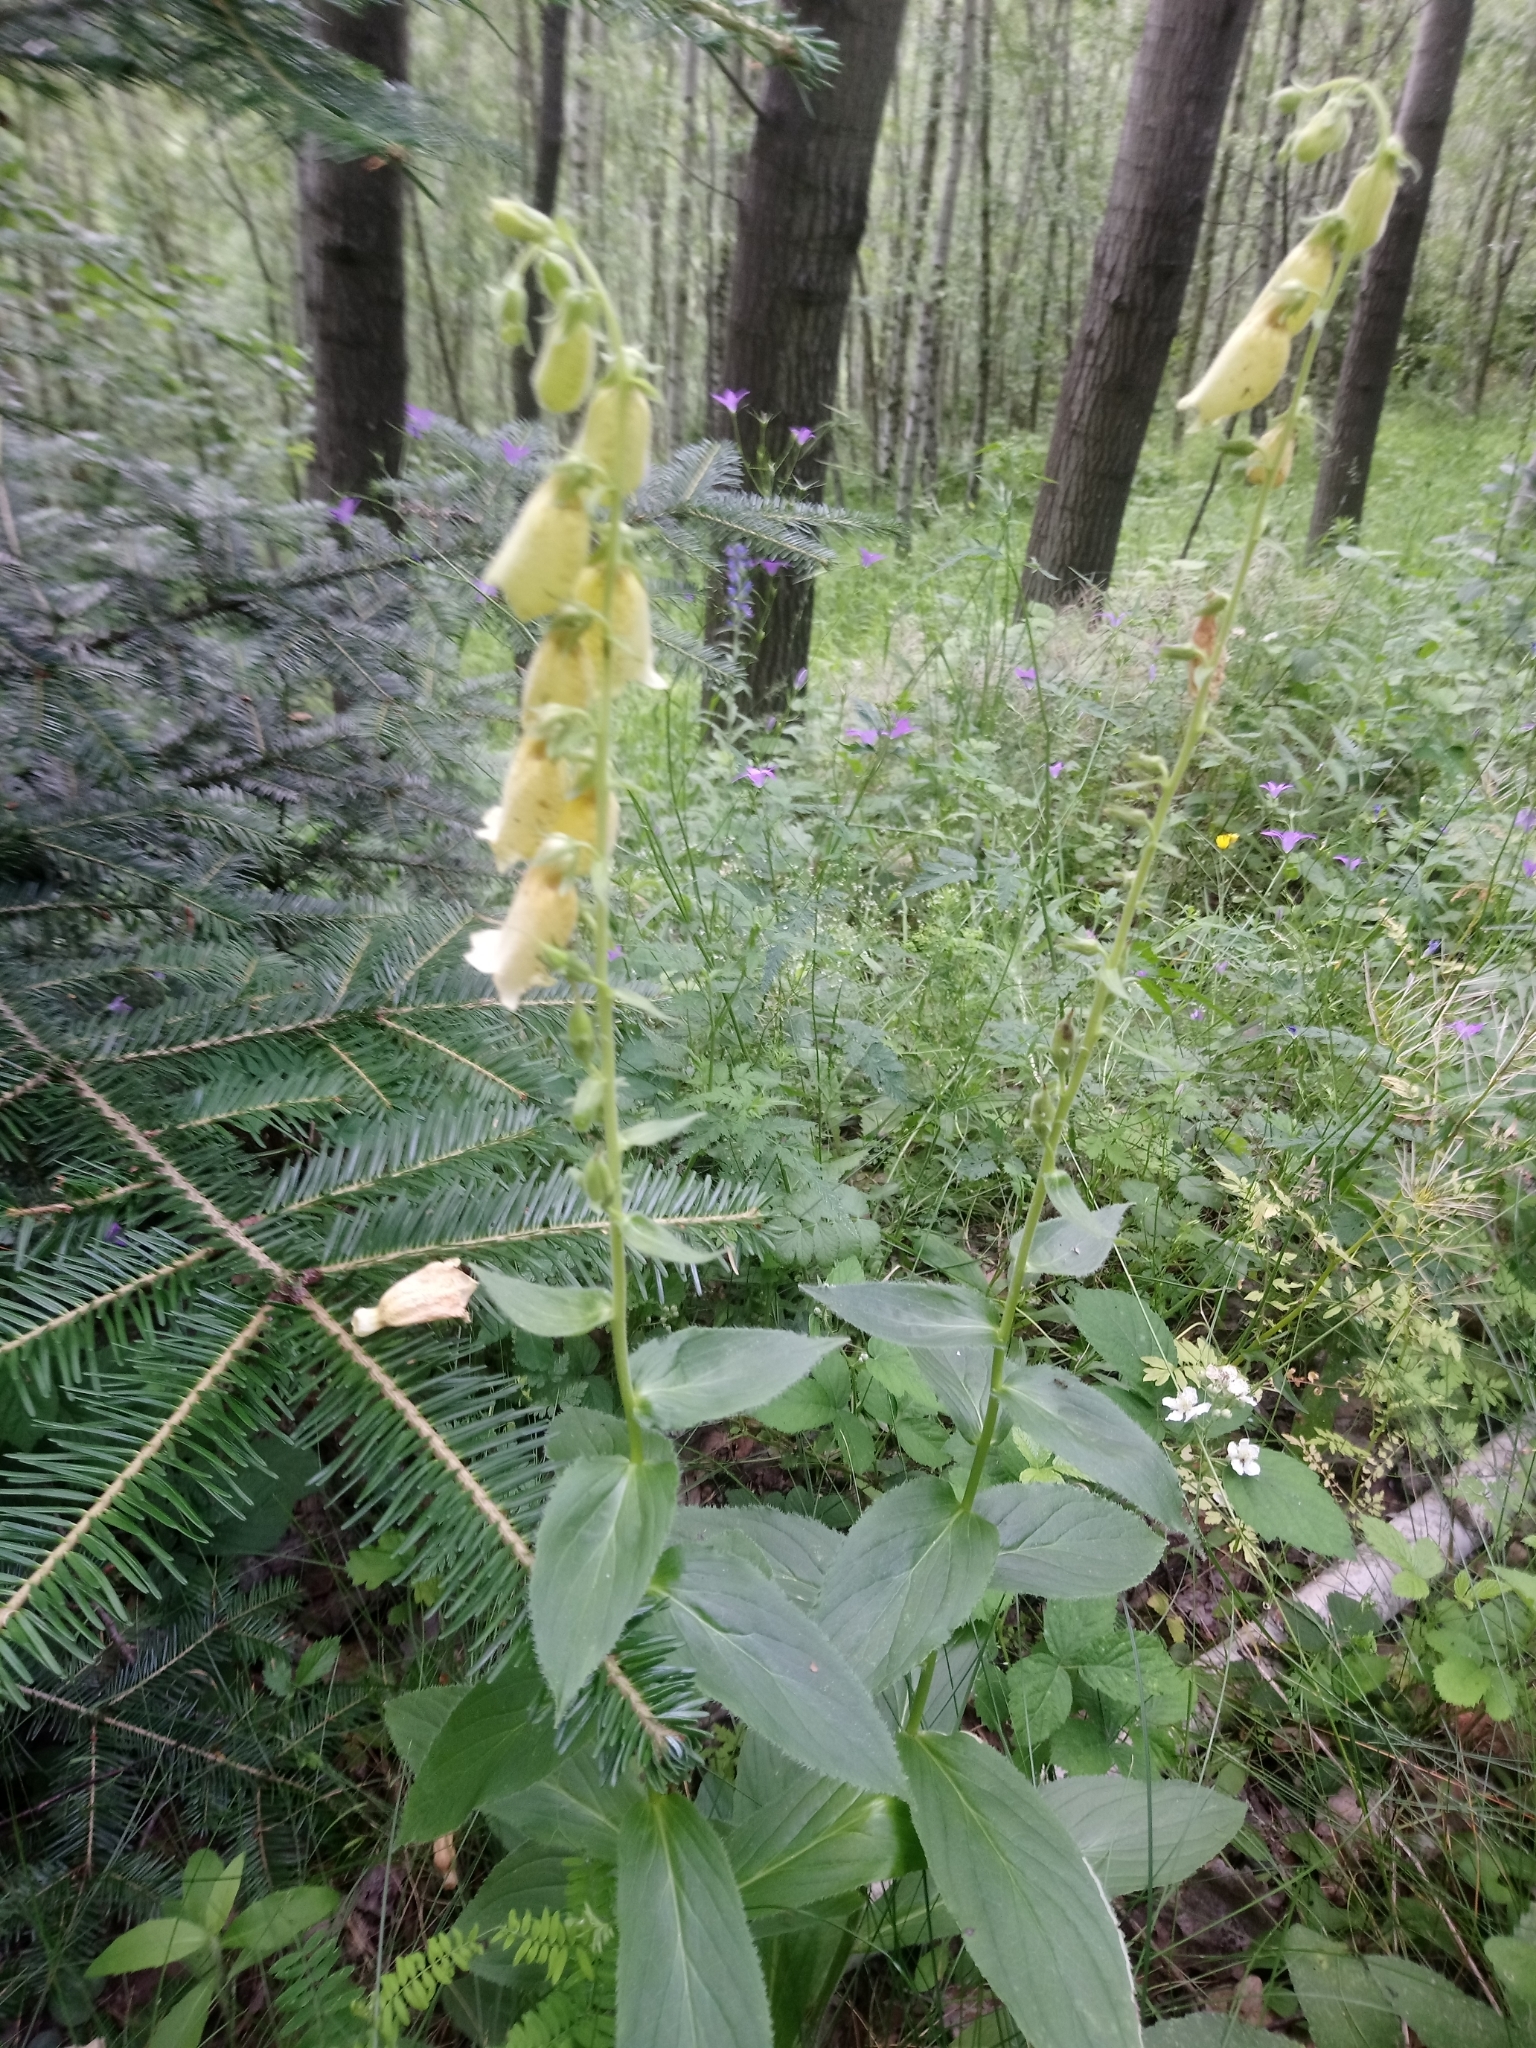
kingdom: Plantae
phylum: Tracheophyta
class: Magnoliopsida
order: Lamiales
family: Plantaginaceae
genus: Digitalis
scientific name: Digitalis grandiflora
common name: Yellow foxglove
